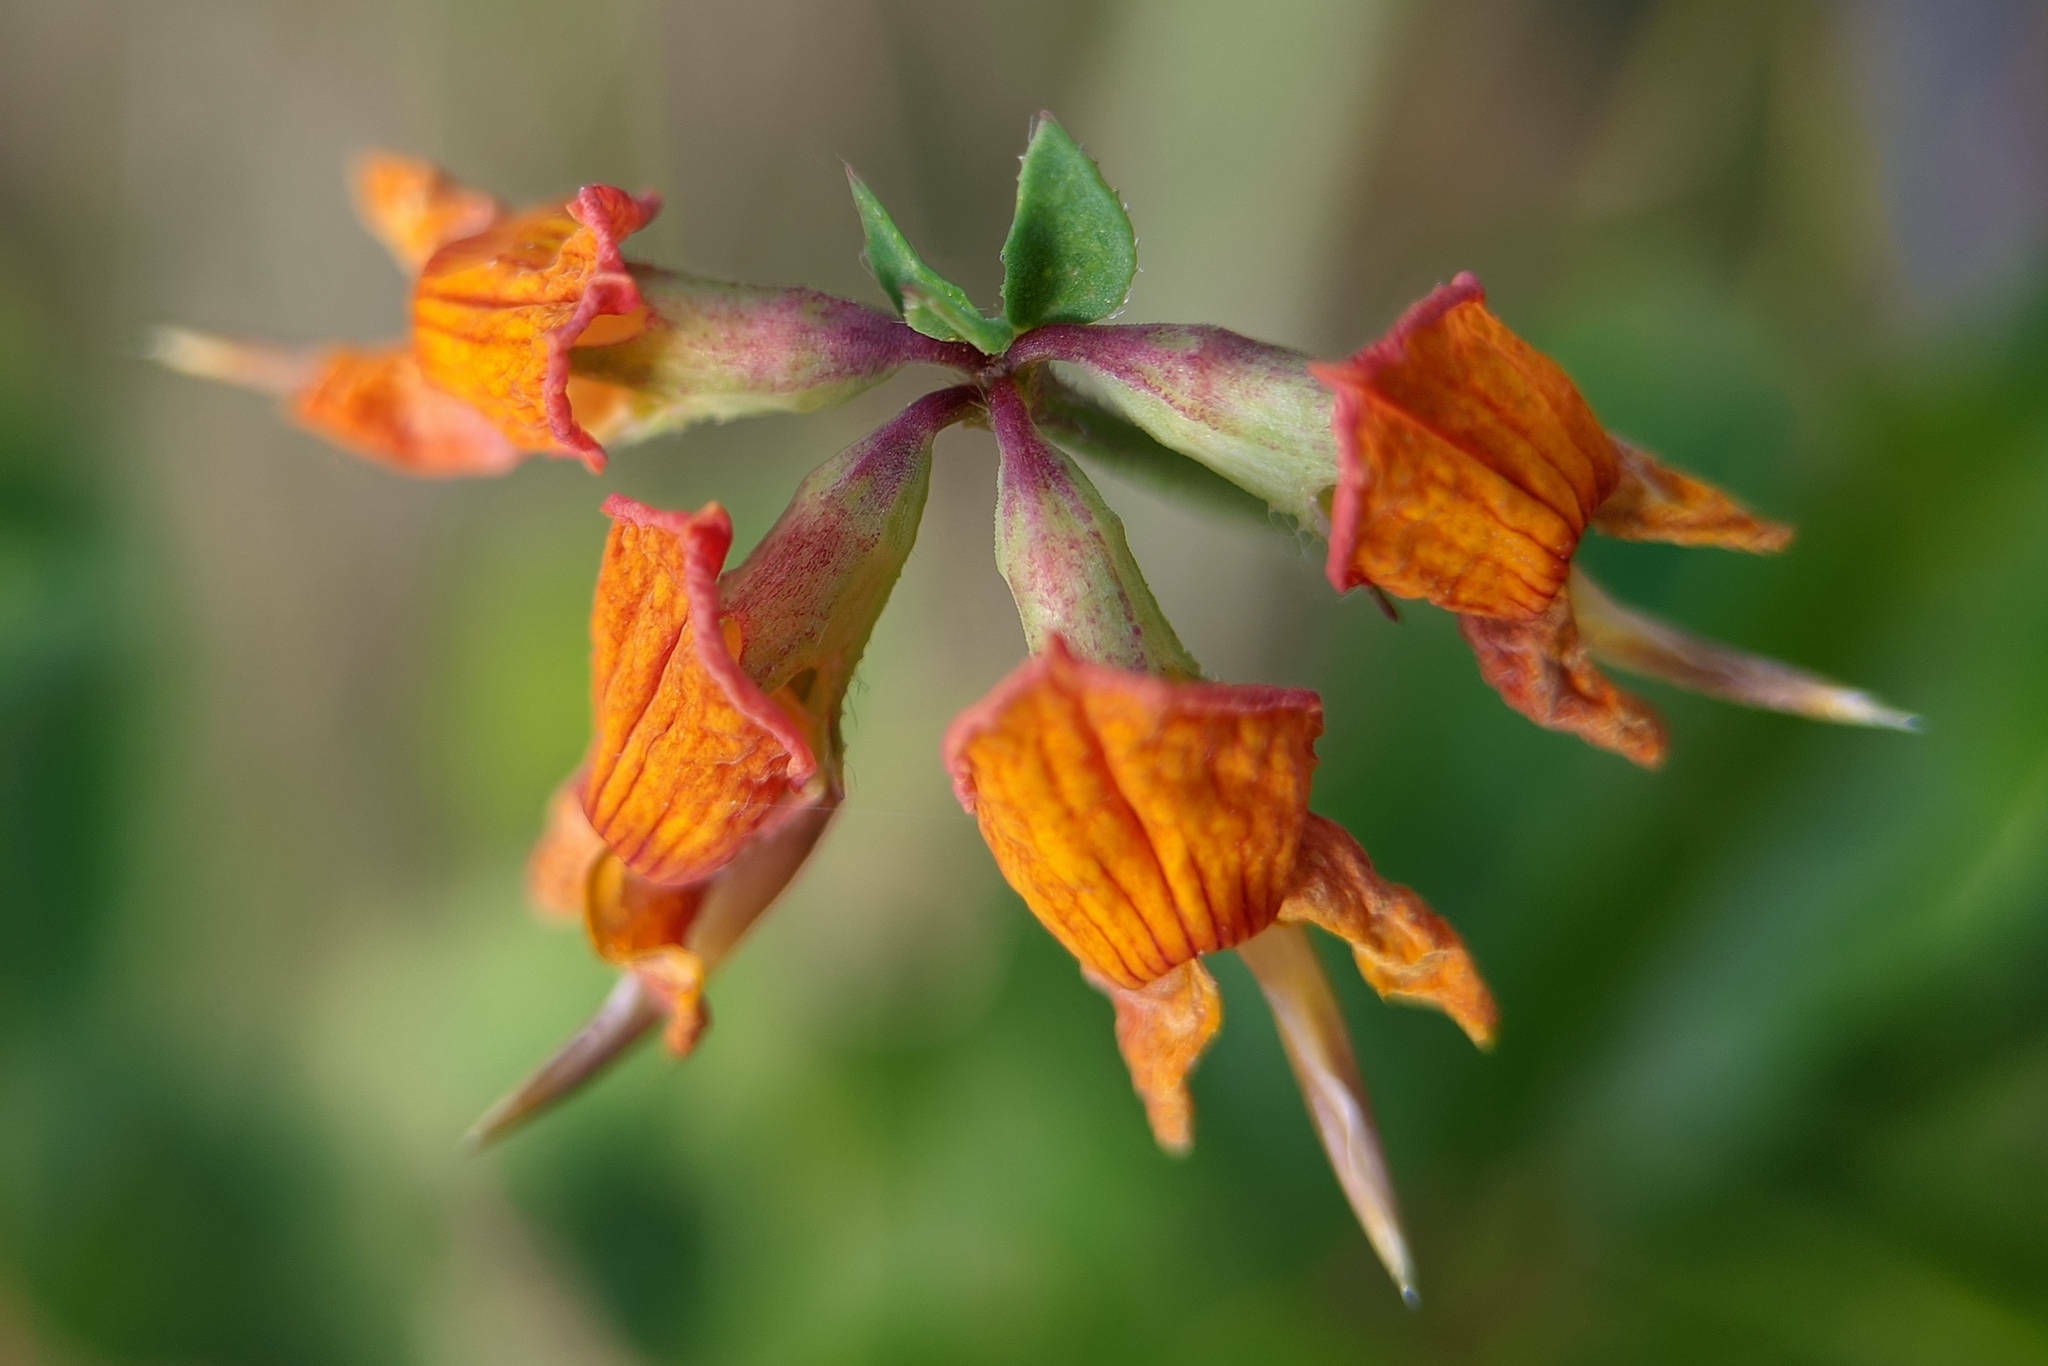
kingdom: Plantae
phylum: Tracheophyta
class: Magnoliopsida
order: Fabales
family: Fabaceae
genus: Lotus
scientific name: Lotus corniculatus
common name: Common bird's-foot-trefoil
